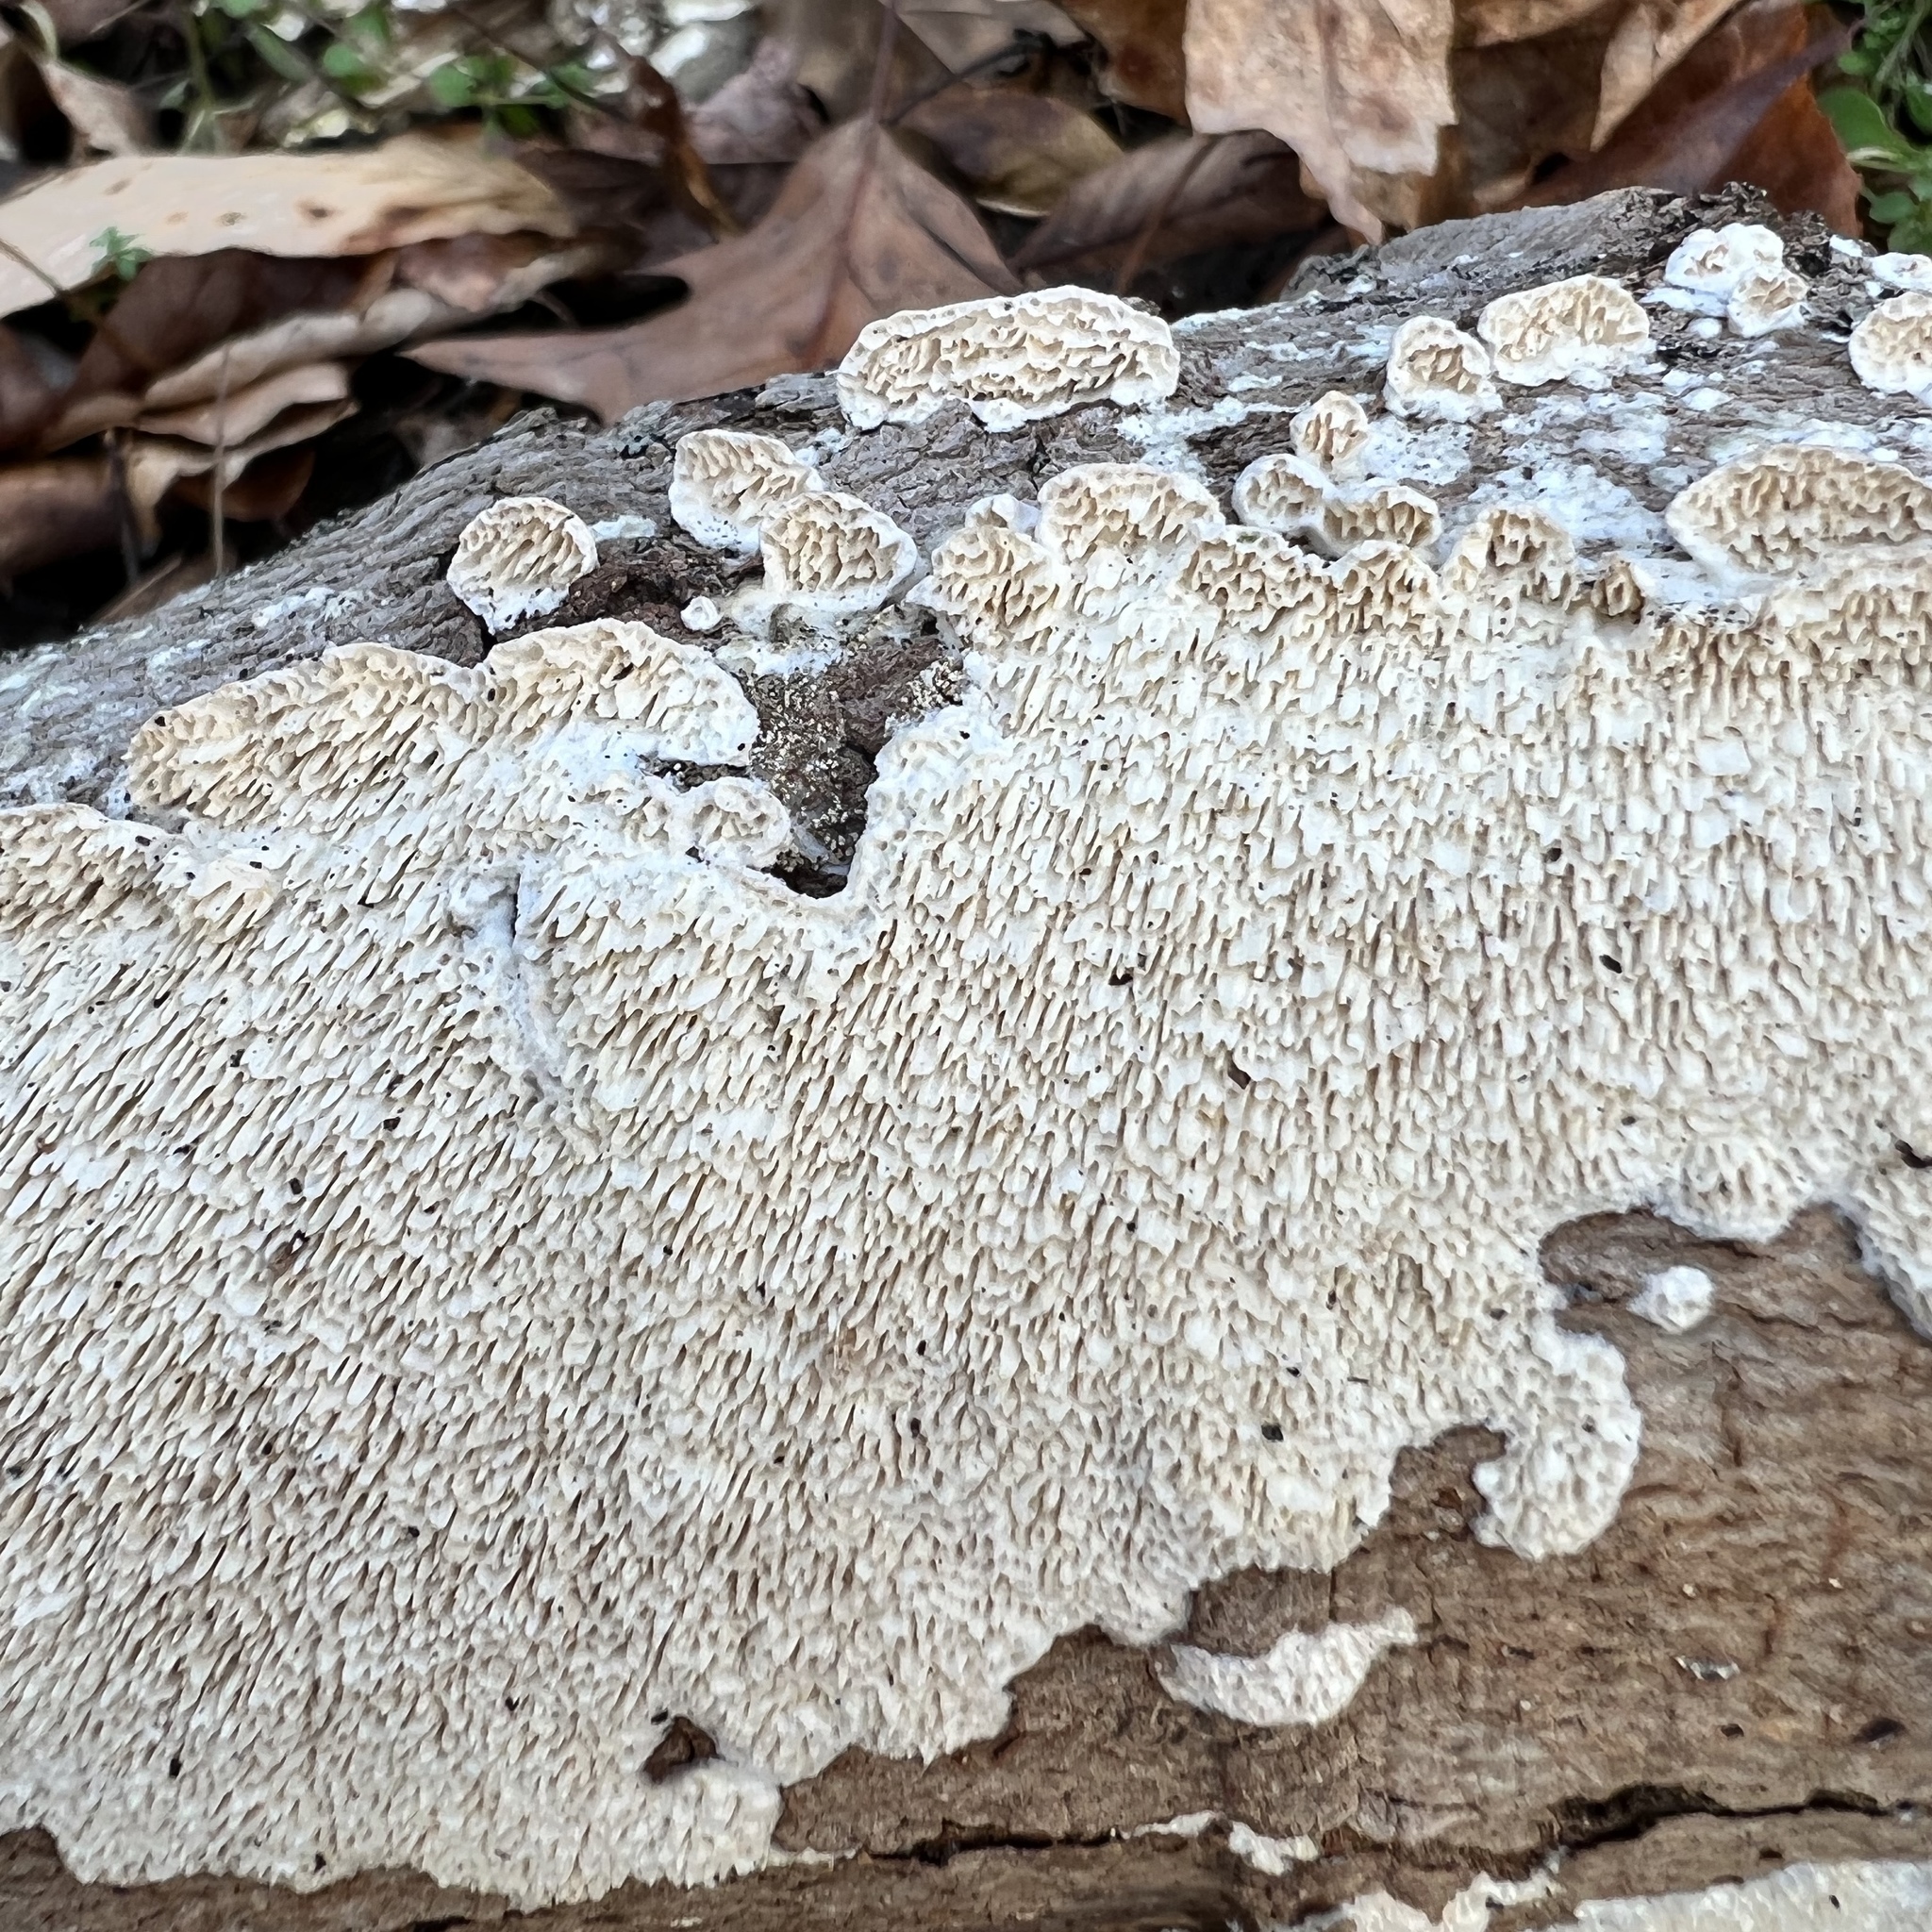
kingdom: Fungi
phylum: Basidiomycota
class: Agaricomycetes
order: Polyporales
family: Irpicaceae
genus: Irpex
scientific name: Irpex lacteus
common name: Milk-white toothed polypore
